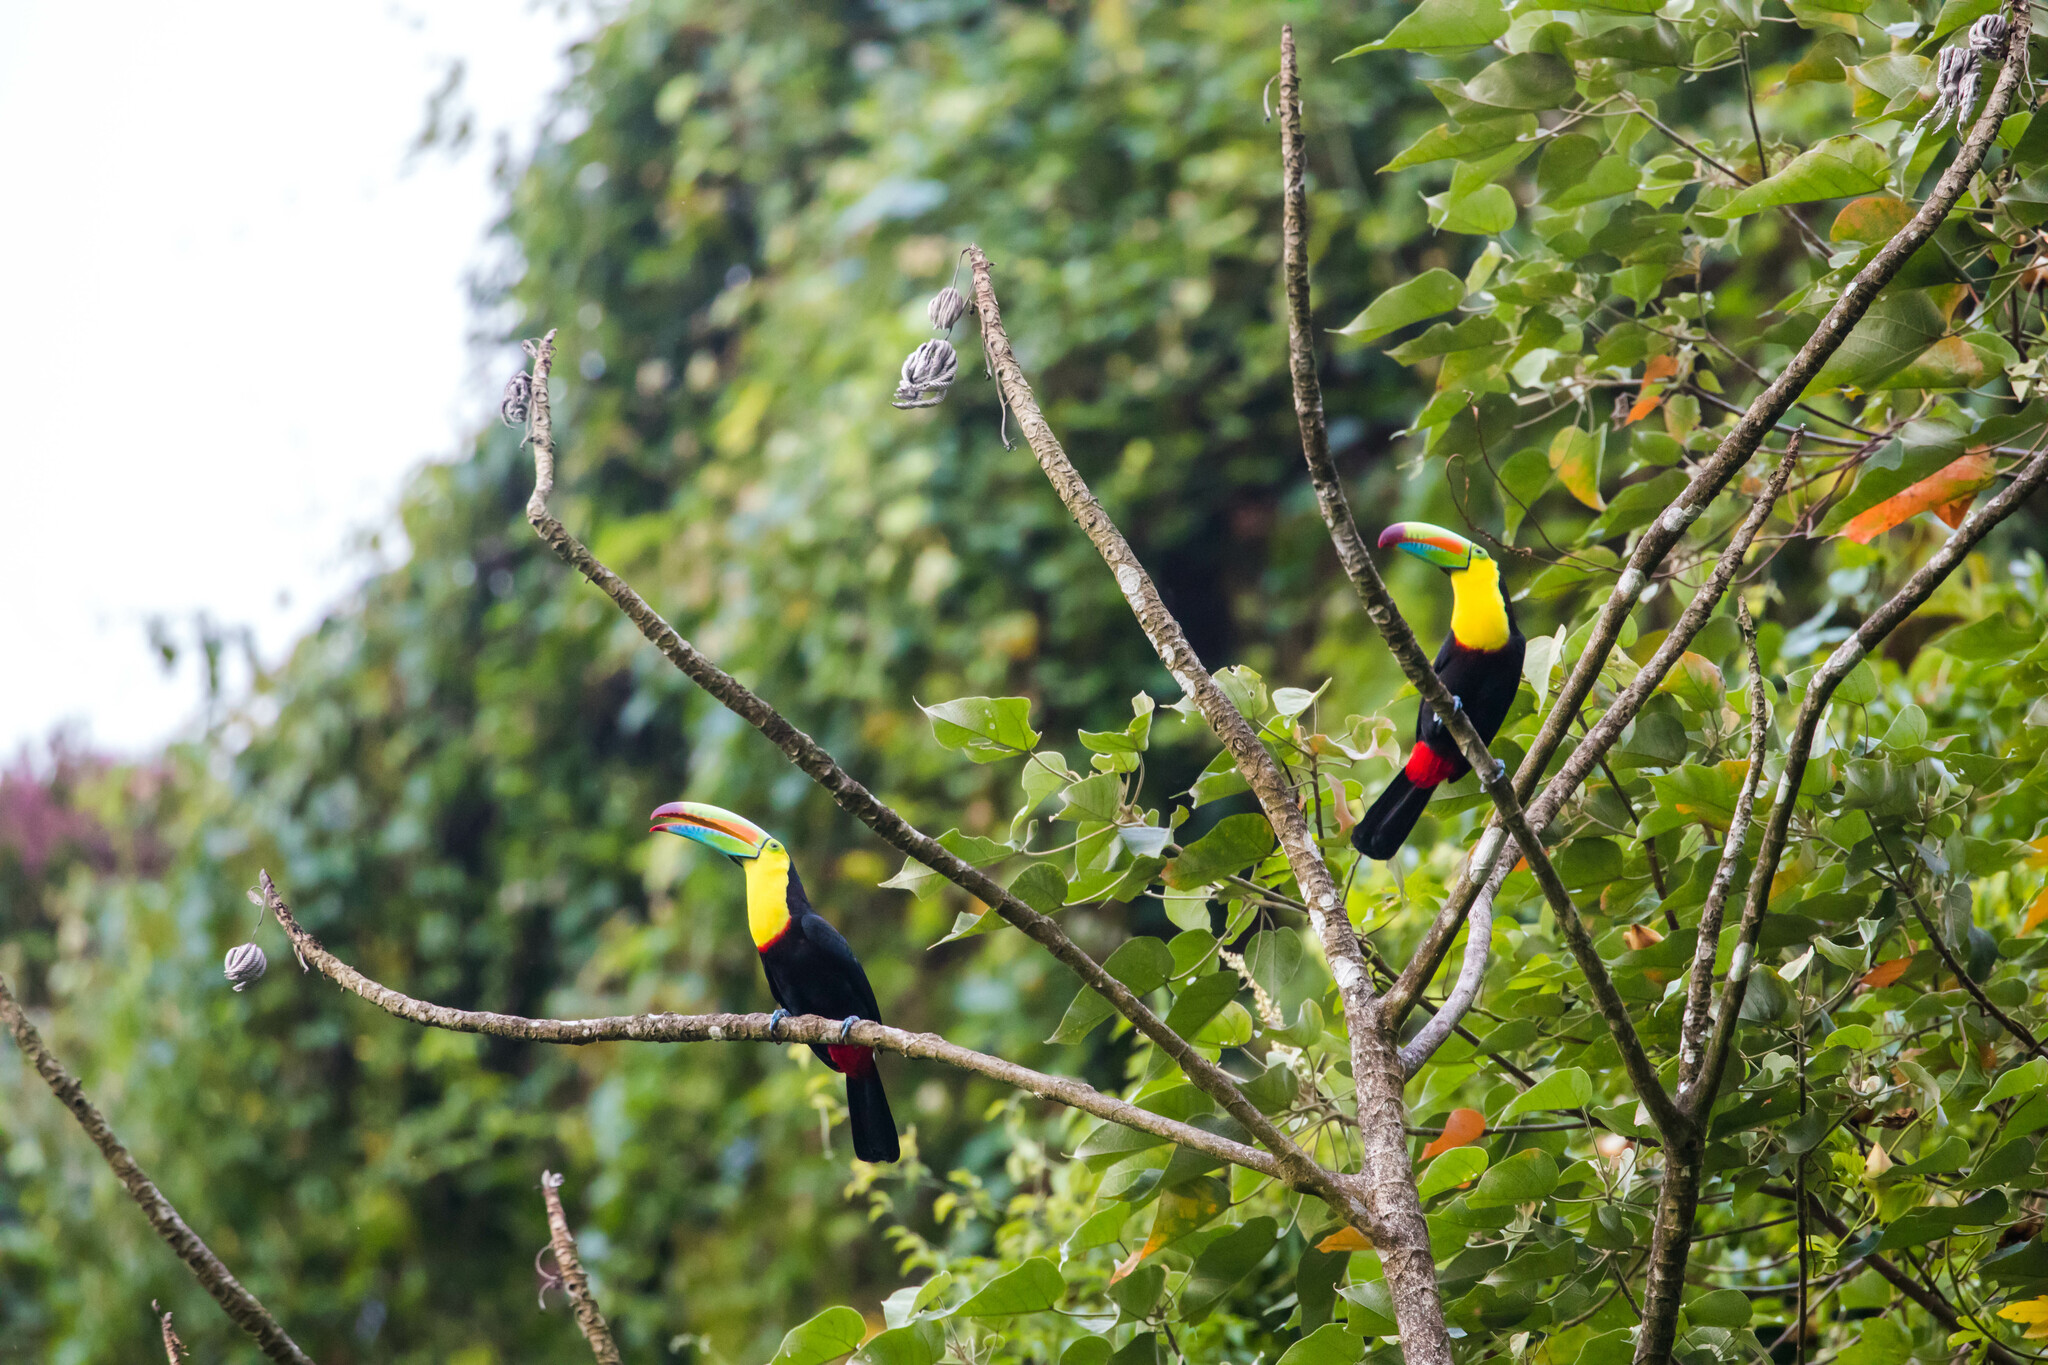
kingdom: Animalia
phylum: Chordata
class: Aves
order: Piciformes
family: Ramphastidae
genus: Ramphastos
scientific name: Ramphastos sulfuratus
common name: Keel-billed toucan
